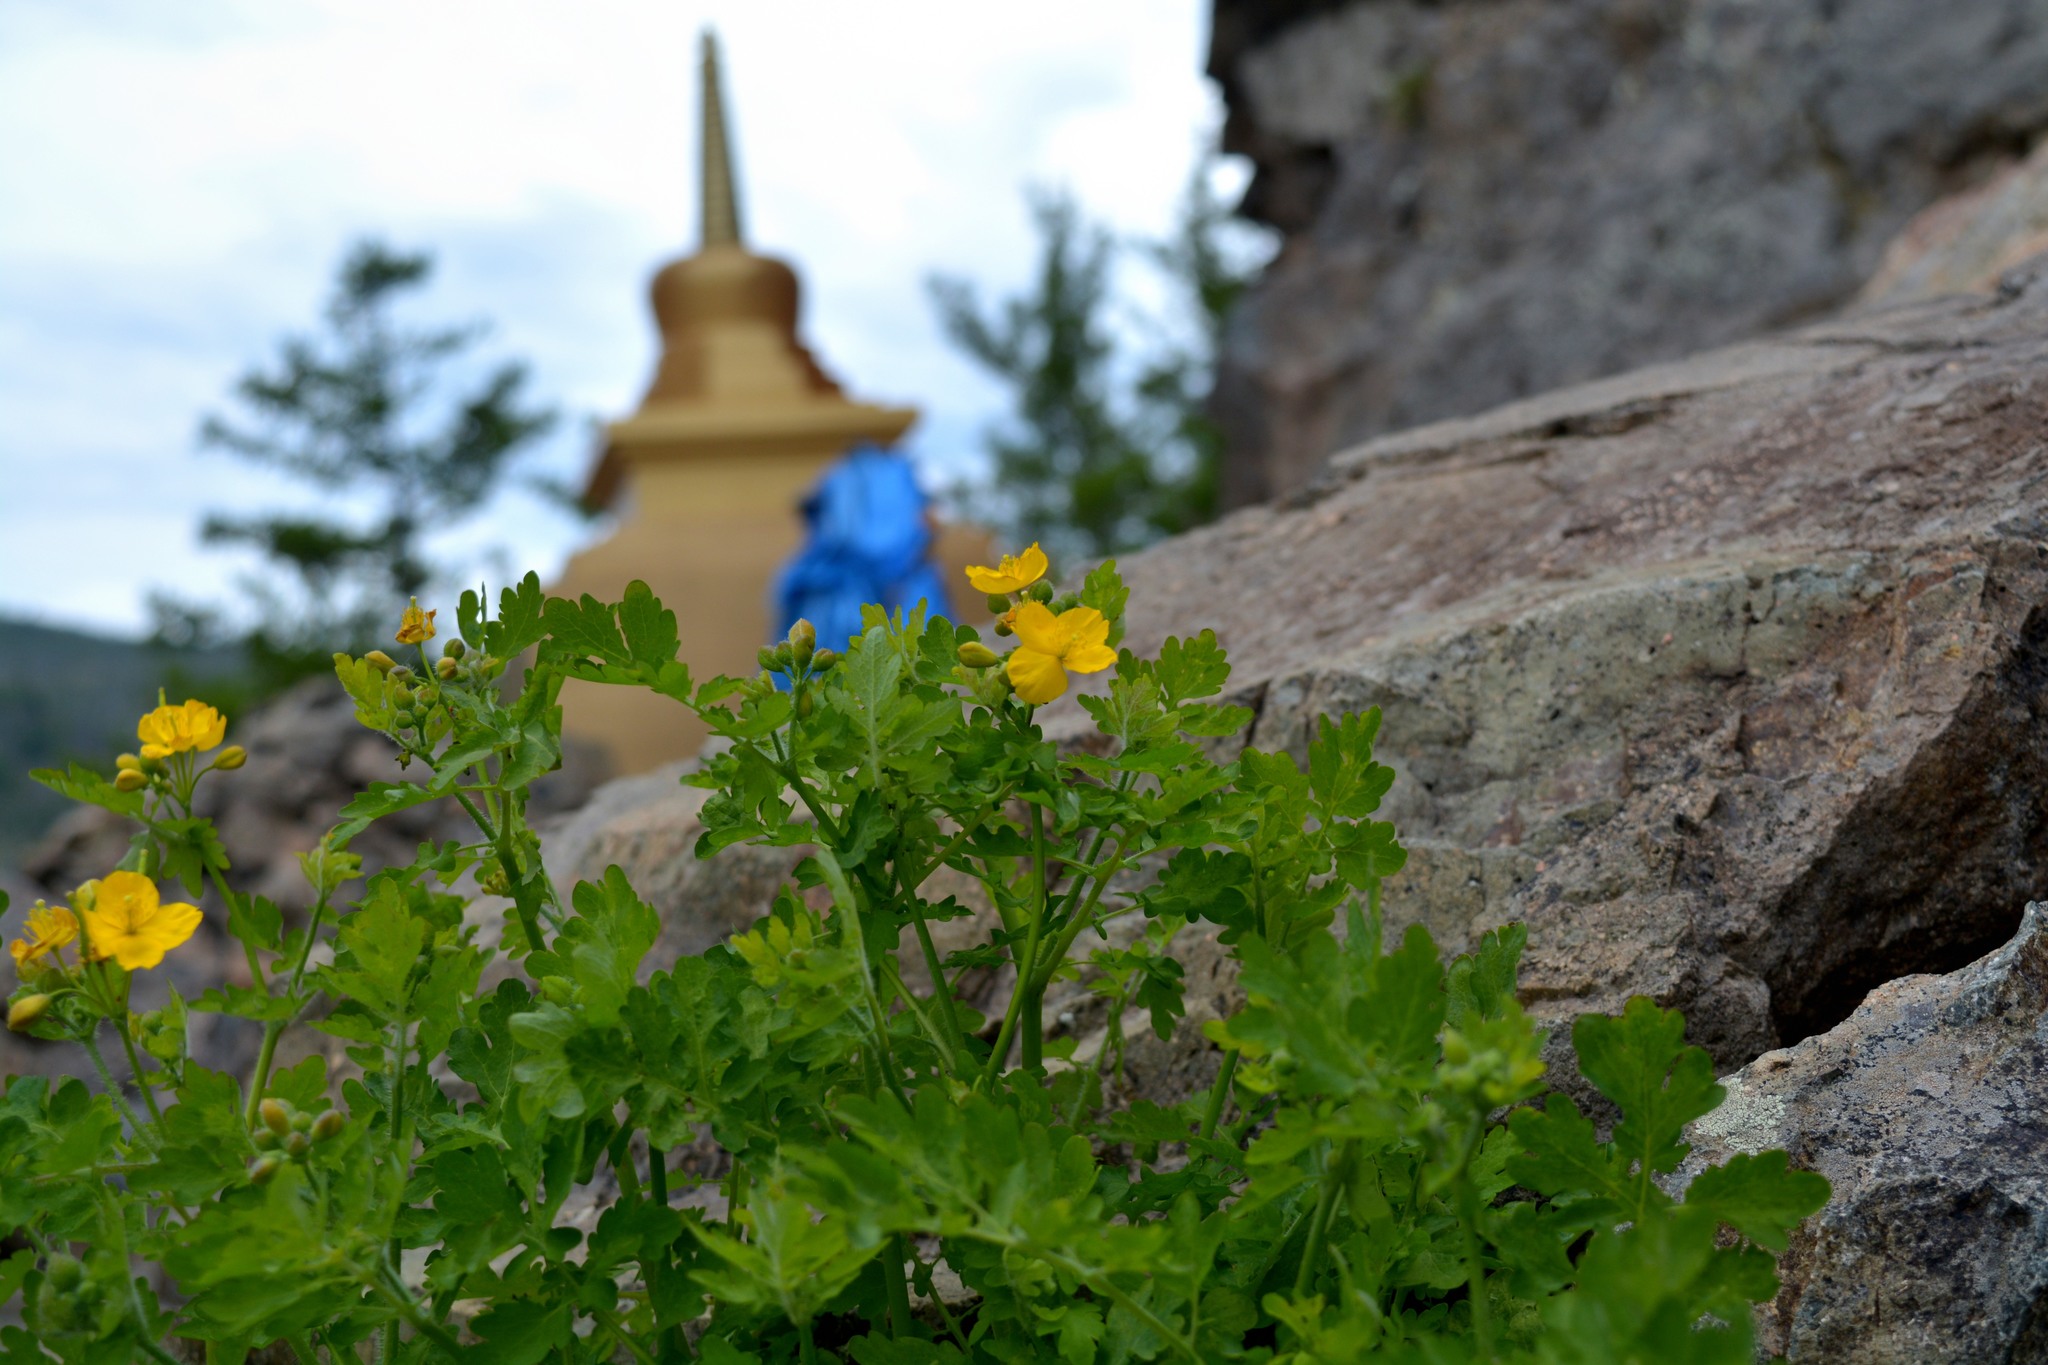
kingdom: Plantae
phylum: Tracheophyta
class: Magnoliopsida
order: Ranunculales
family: Papaveraceae
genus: Chelidonium
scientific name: Chelidonium majus
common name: Greater celandine
